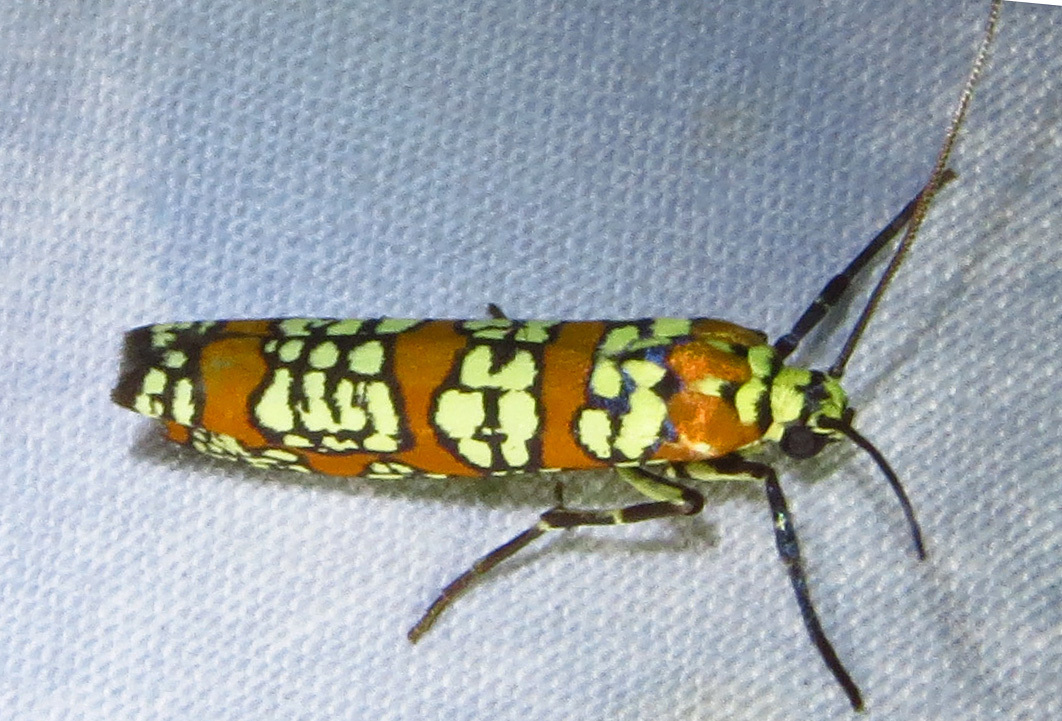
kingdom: Animalia
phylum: Arthropoda
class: Insecta
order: Lepidoptera
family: Attevidae
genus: Atteva
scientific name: Atteva punctella
